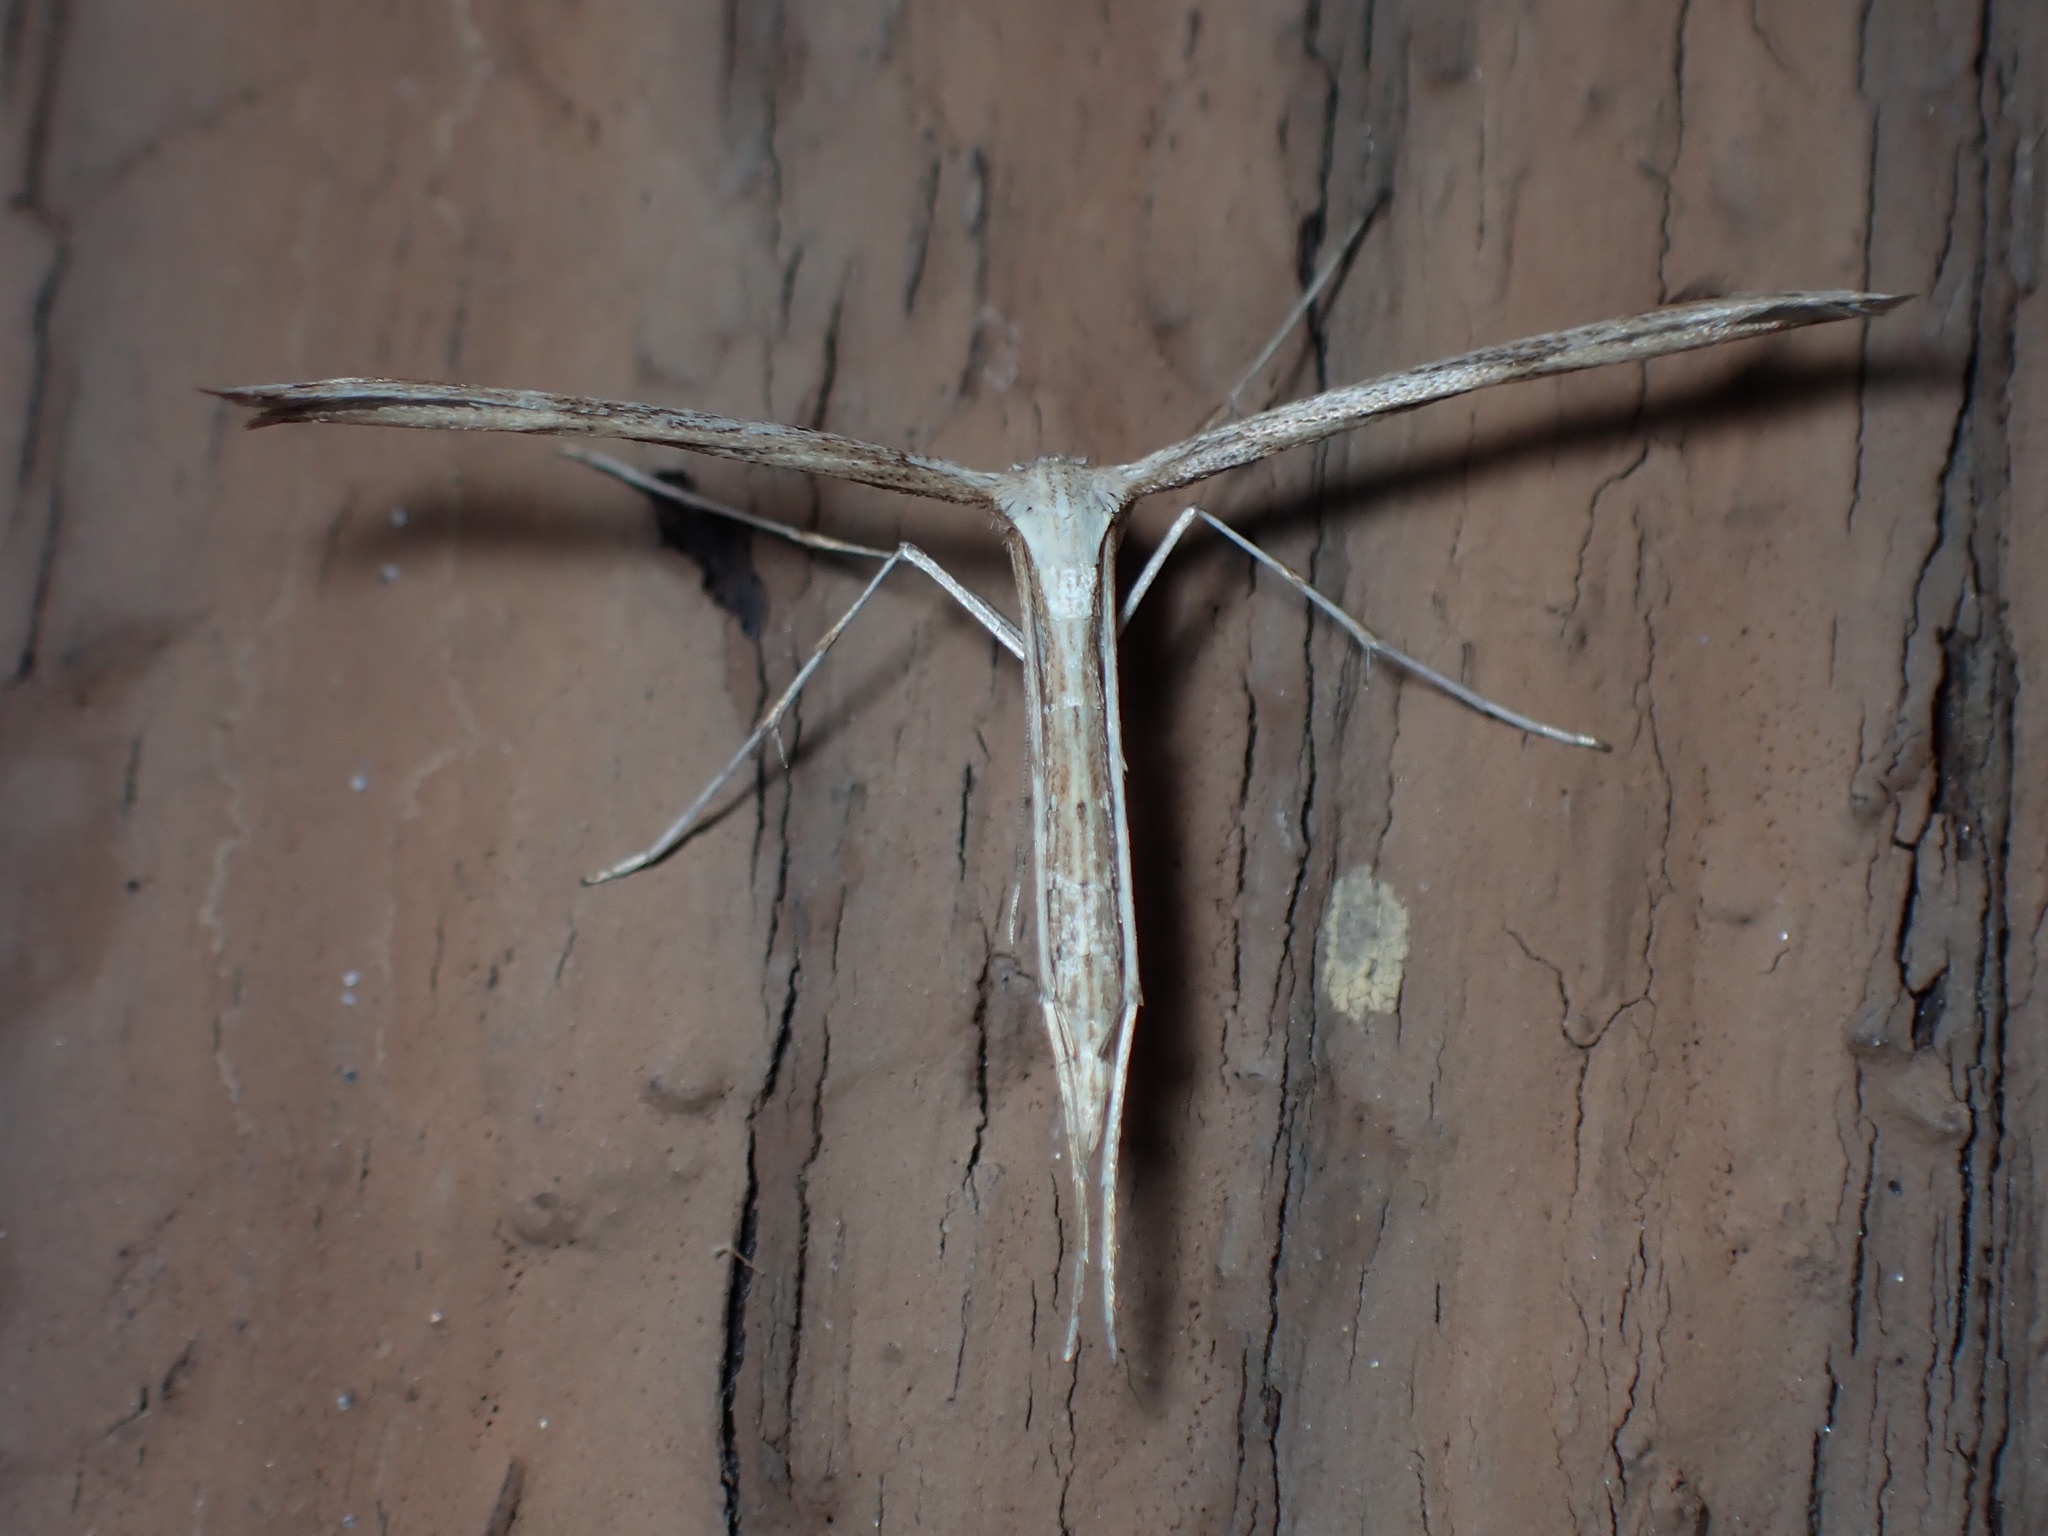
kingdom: Animalia
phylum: Arthropoda
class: Insecta
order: Lepidoptera
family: Pterophoridae
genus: Emmelina
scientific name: Emmelina monodactyla
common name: Common plume
